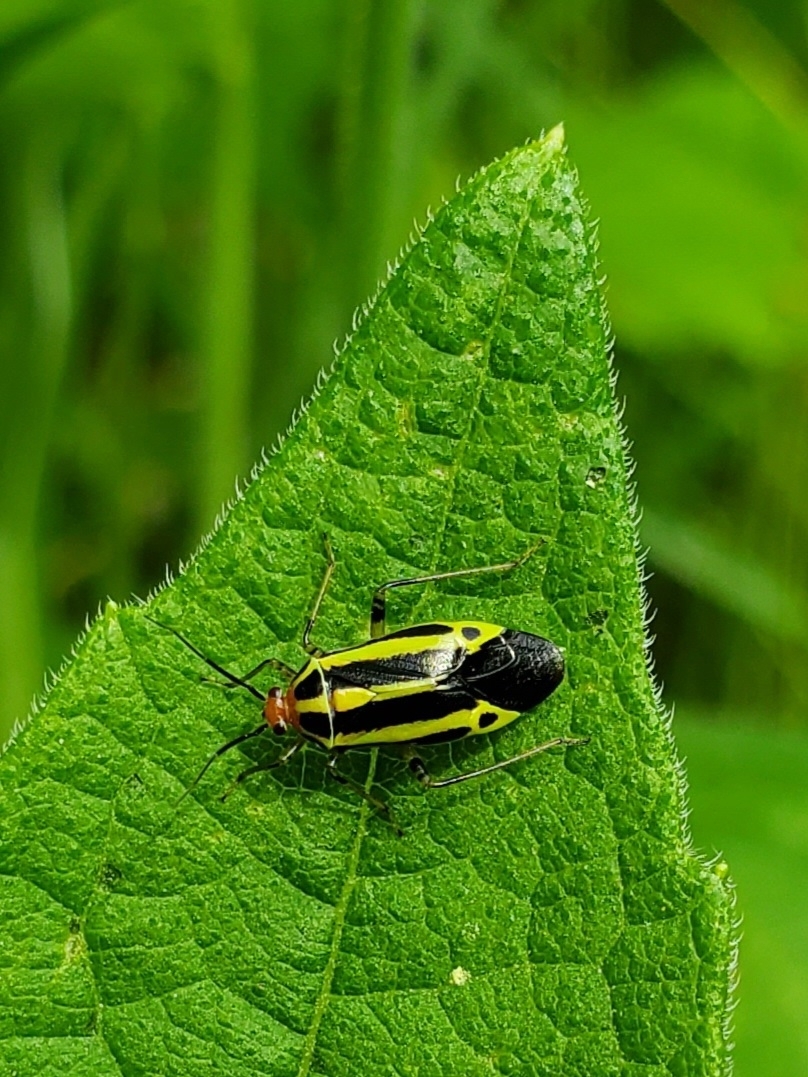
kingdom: Animalia
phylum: Arthropoda
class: Insecta
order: Hemiptera
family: Miridae
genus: Poecilocapsus
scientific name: Poecilocapsus lineatus
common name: Four-lined plant bug
